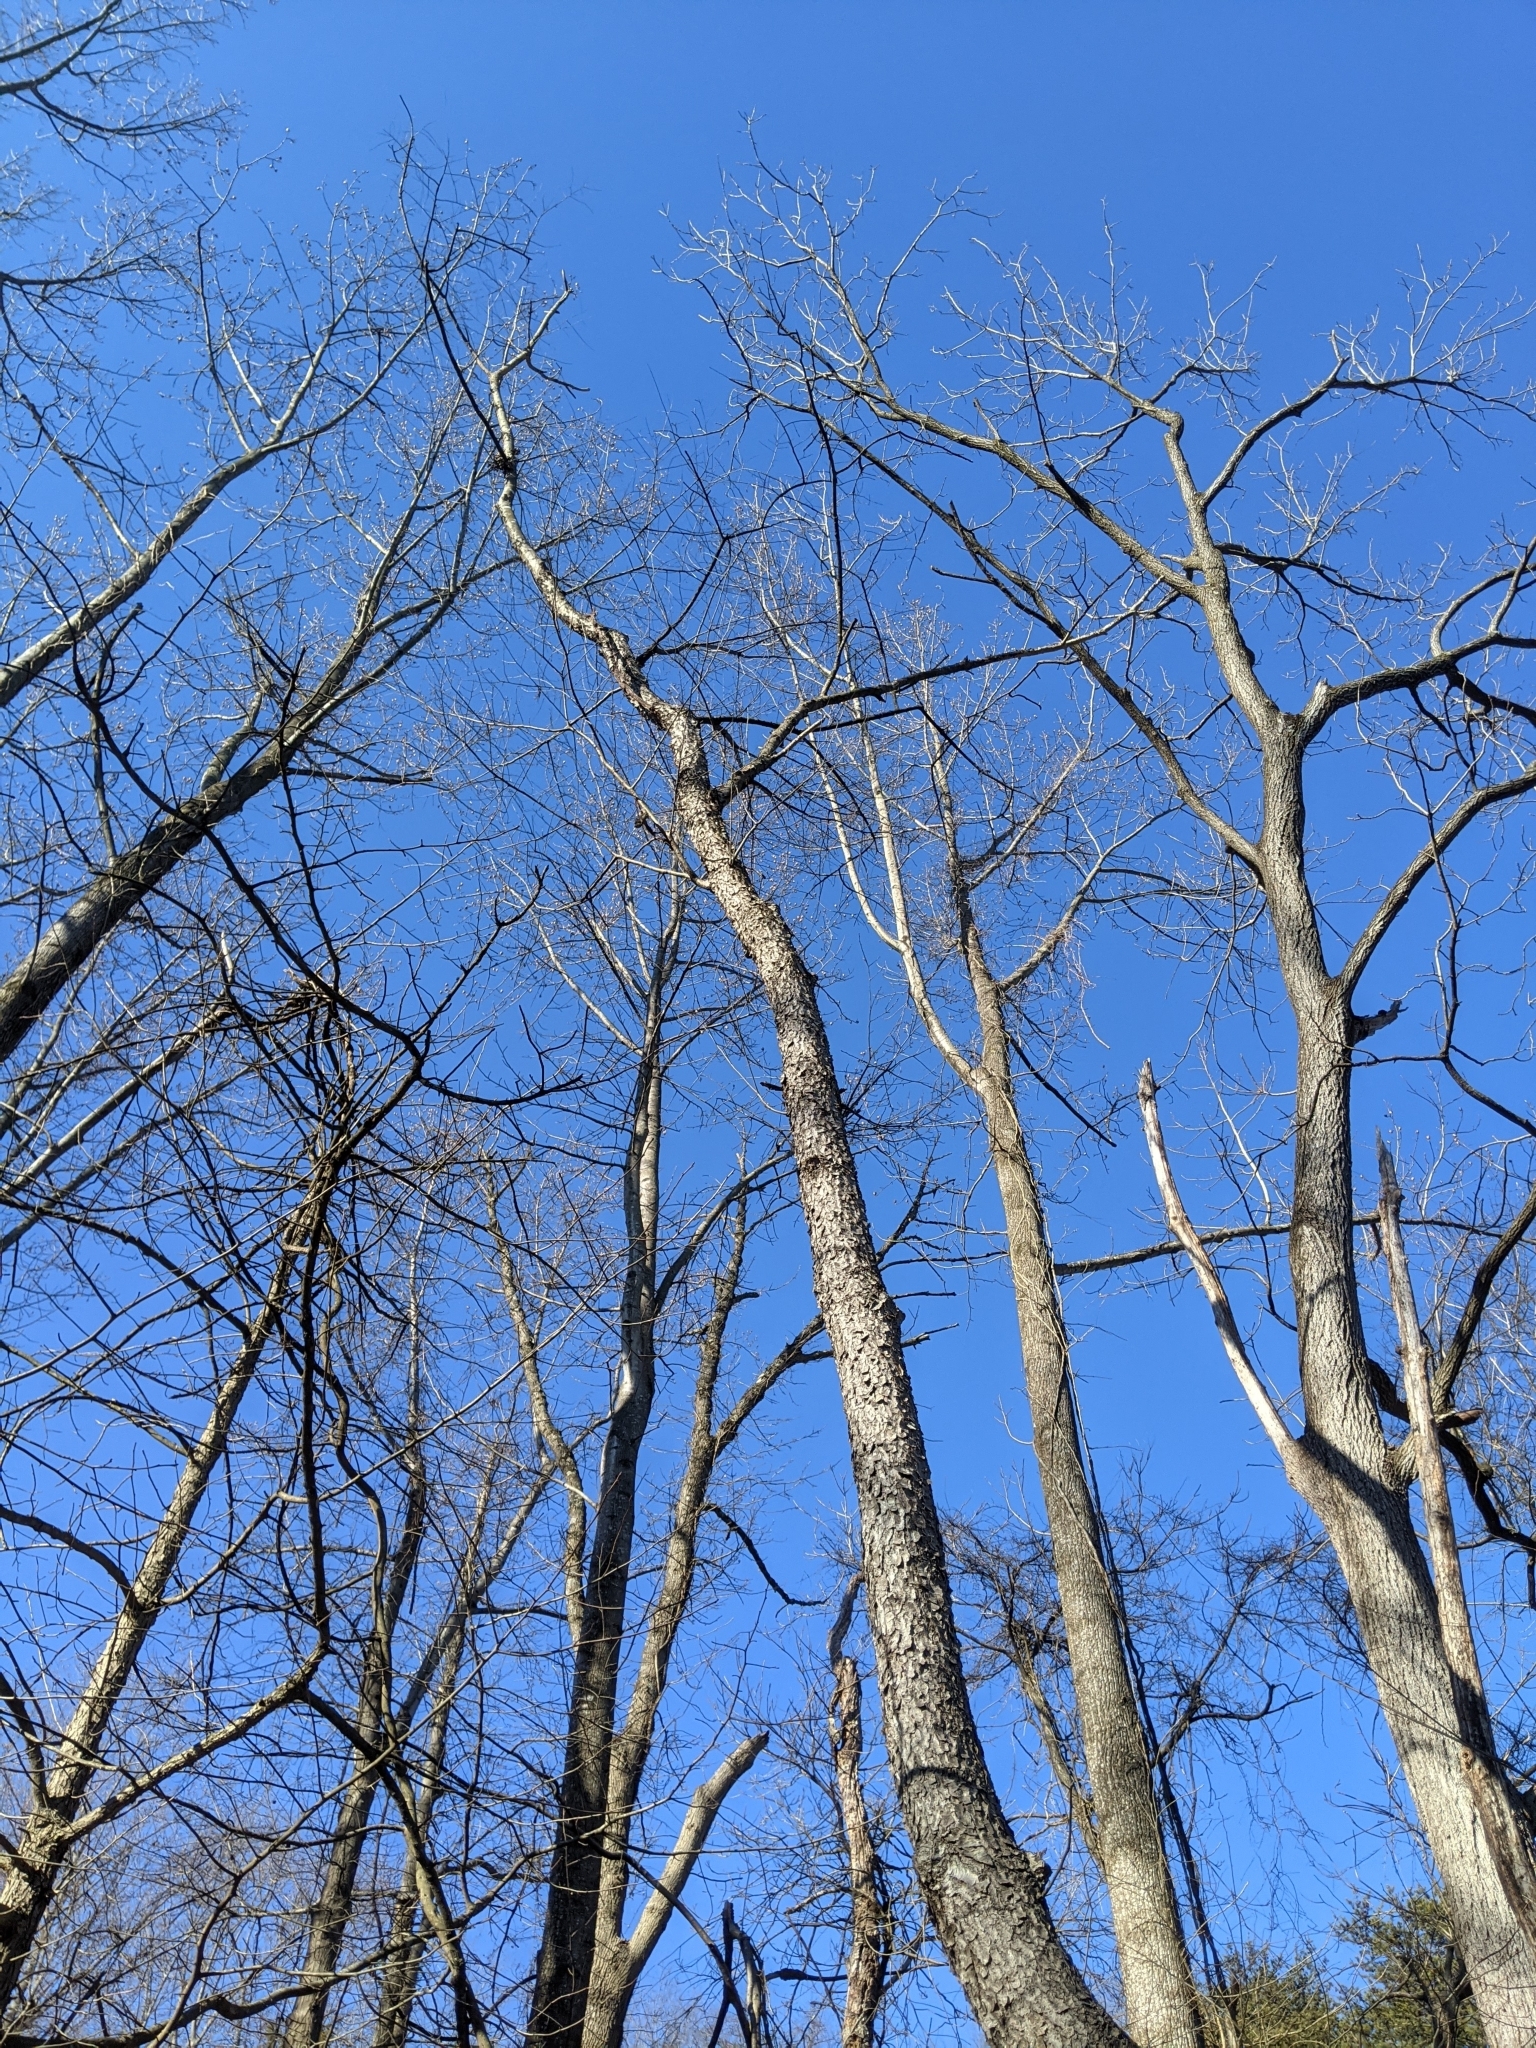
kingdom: Plantae
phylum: Tracheophyta
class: Magnoliopsida
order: Rosales
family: Rosaceae
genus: Prunus
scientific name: Prunus serotina
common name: Black cherry
